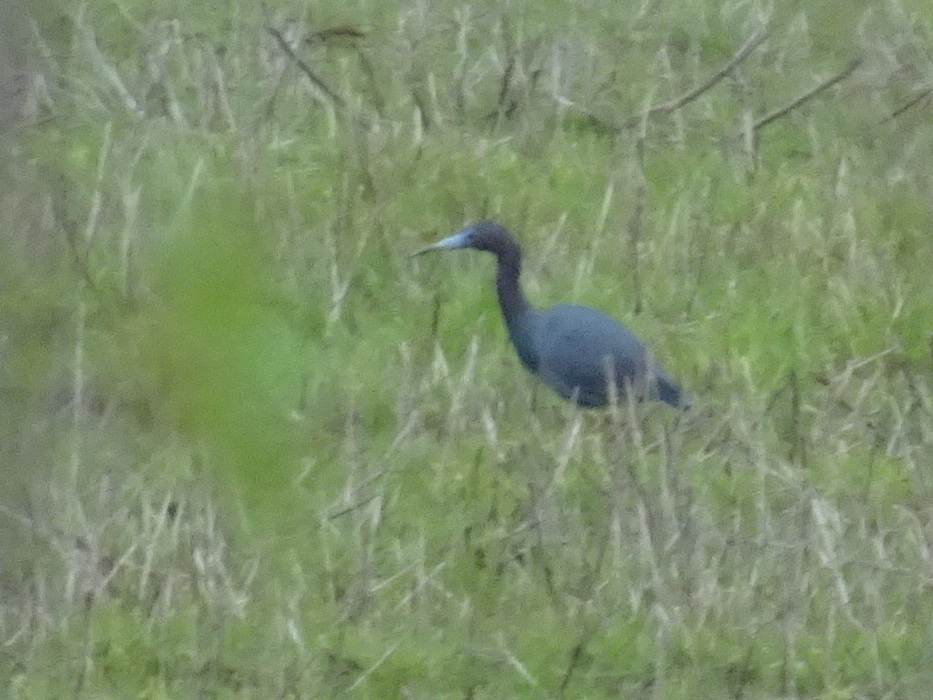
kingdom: Animalia
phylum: Chordata
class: Aves
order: Pelecaniformes
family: Ardeidae
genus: Egretta
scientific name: Egretta caerulea
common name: Little blue heron
